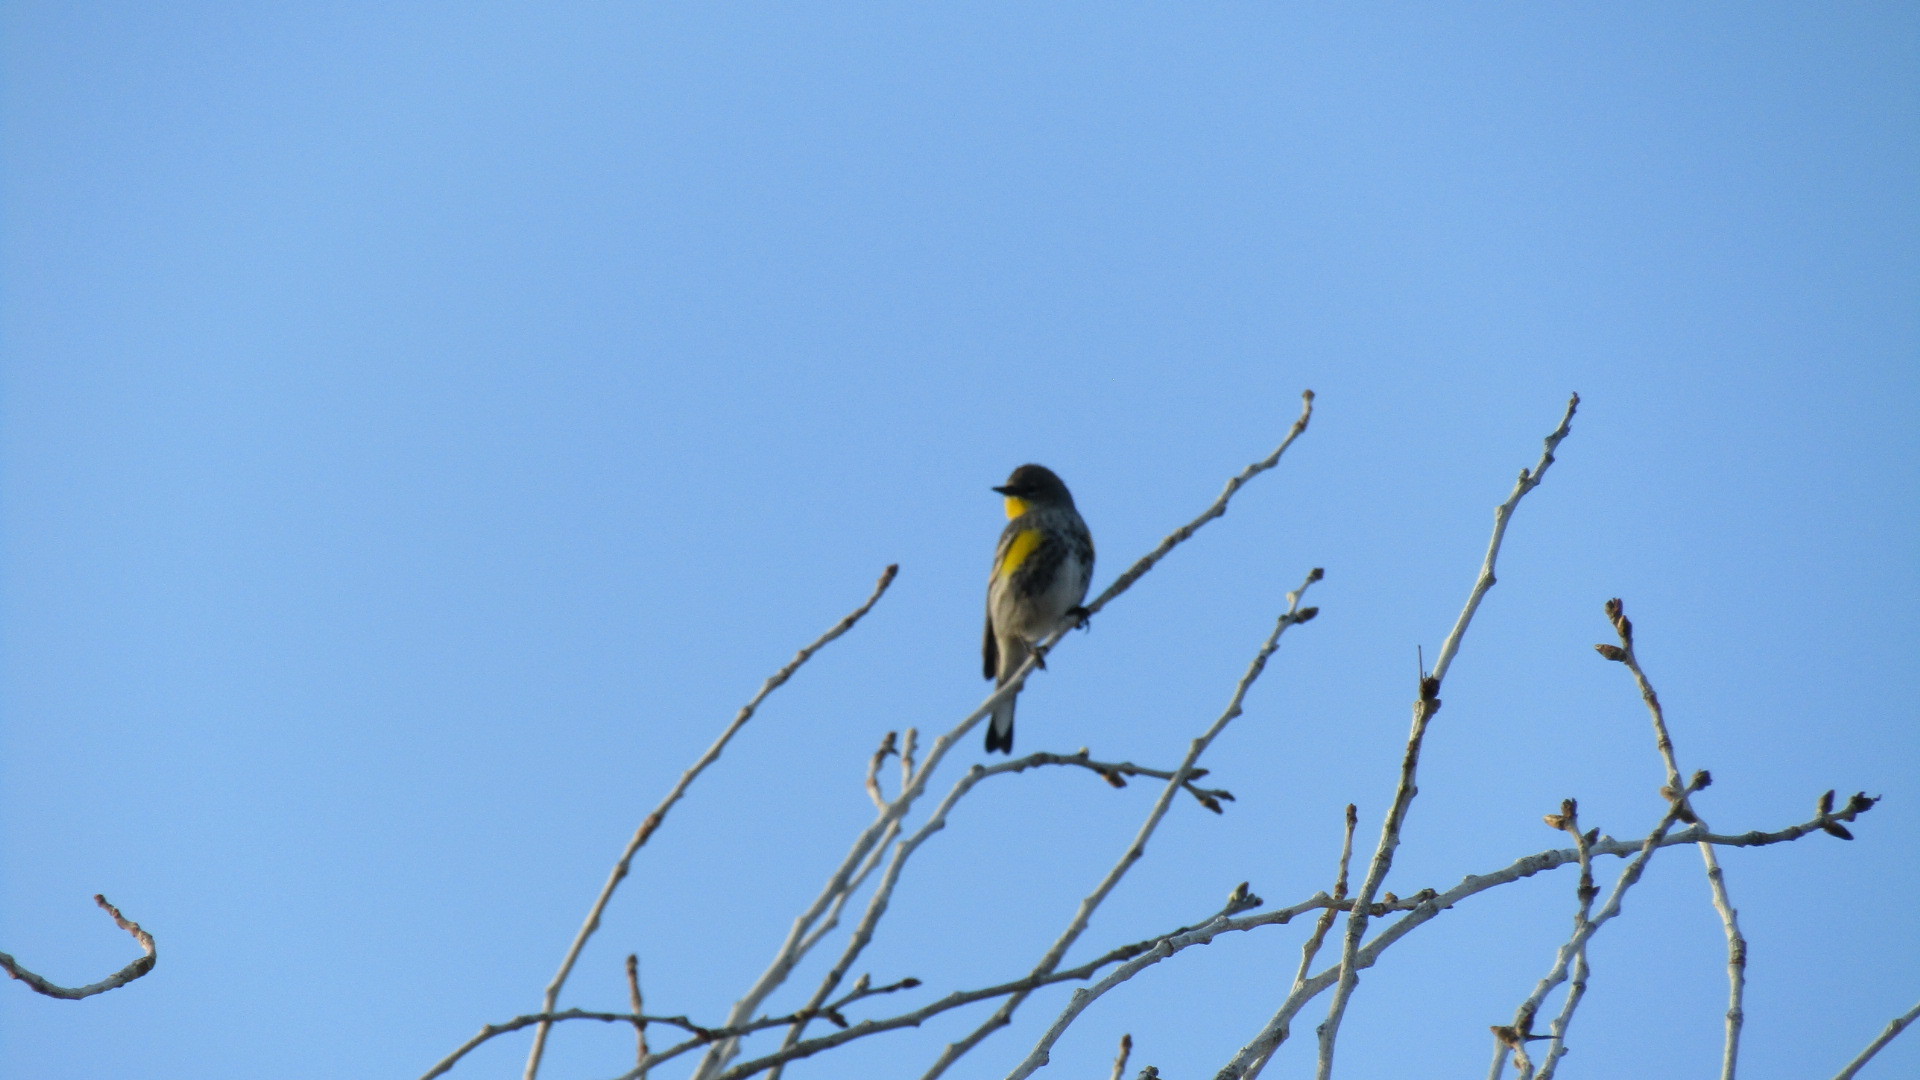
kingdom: Animalia
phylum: Chordata
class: Aves
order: Passeriformes
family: Parulidae
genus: Setophaga
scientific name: Setophaga coronata
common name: Myrtle warbler
